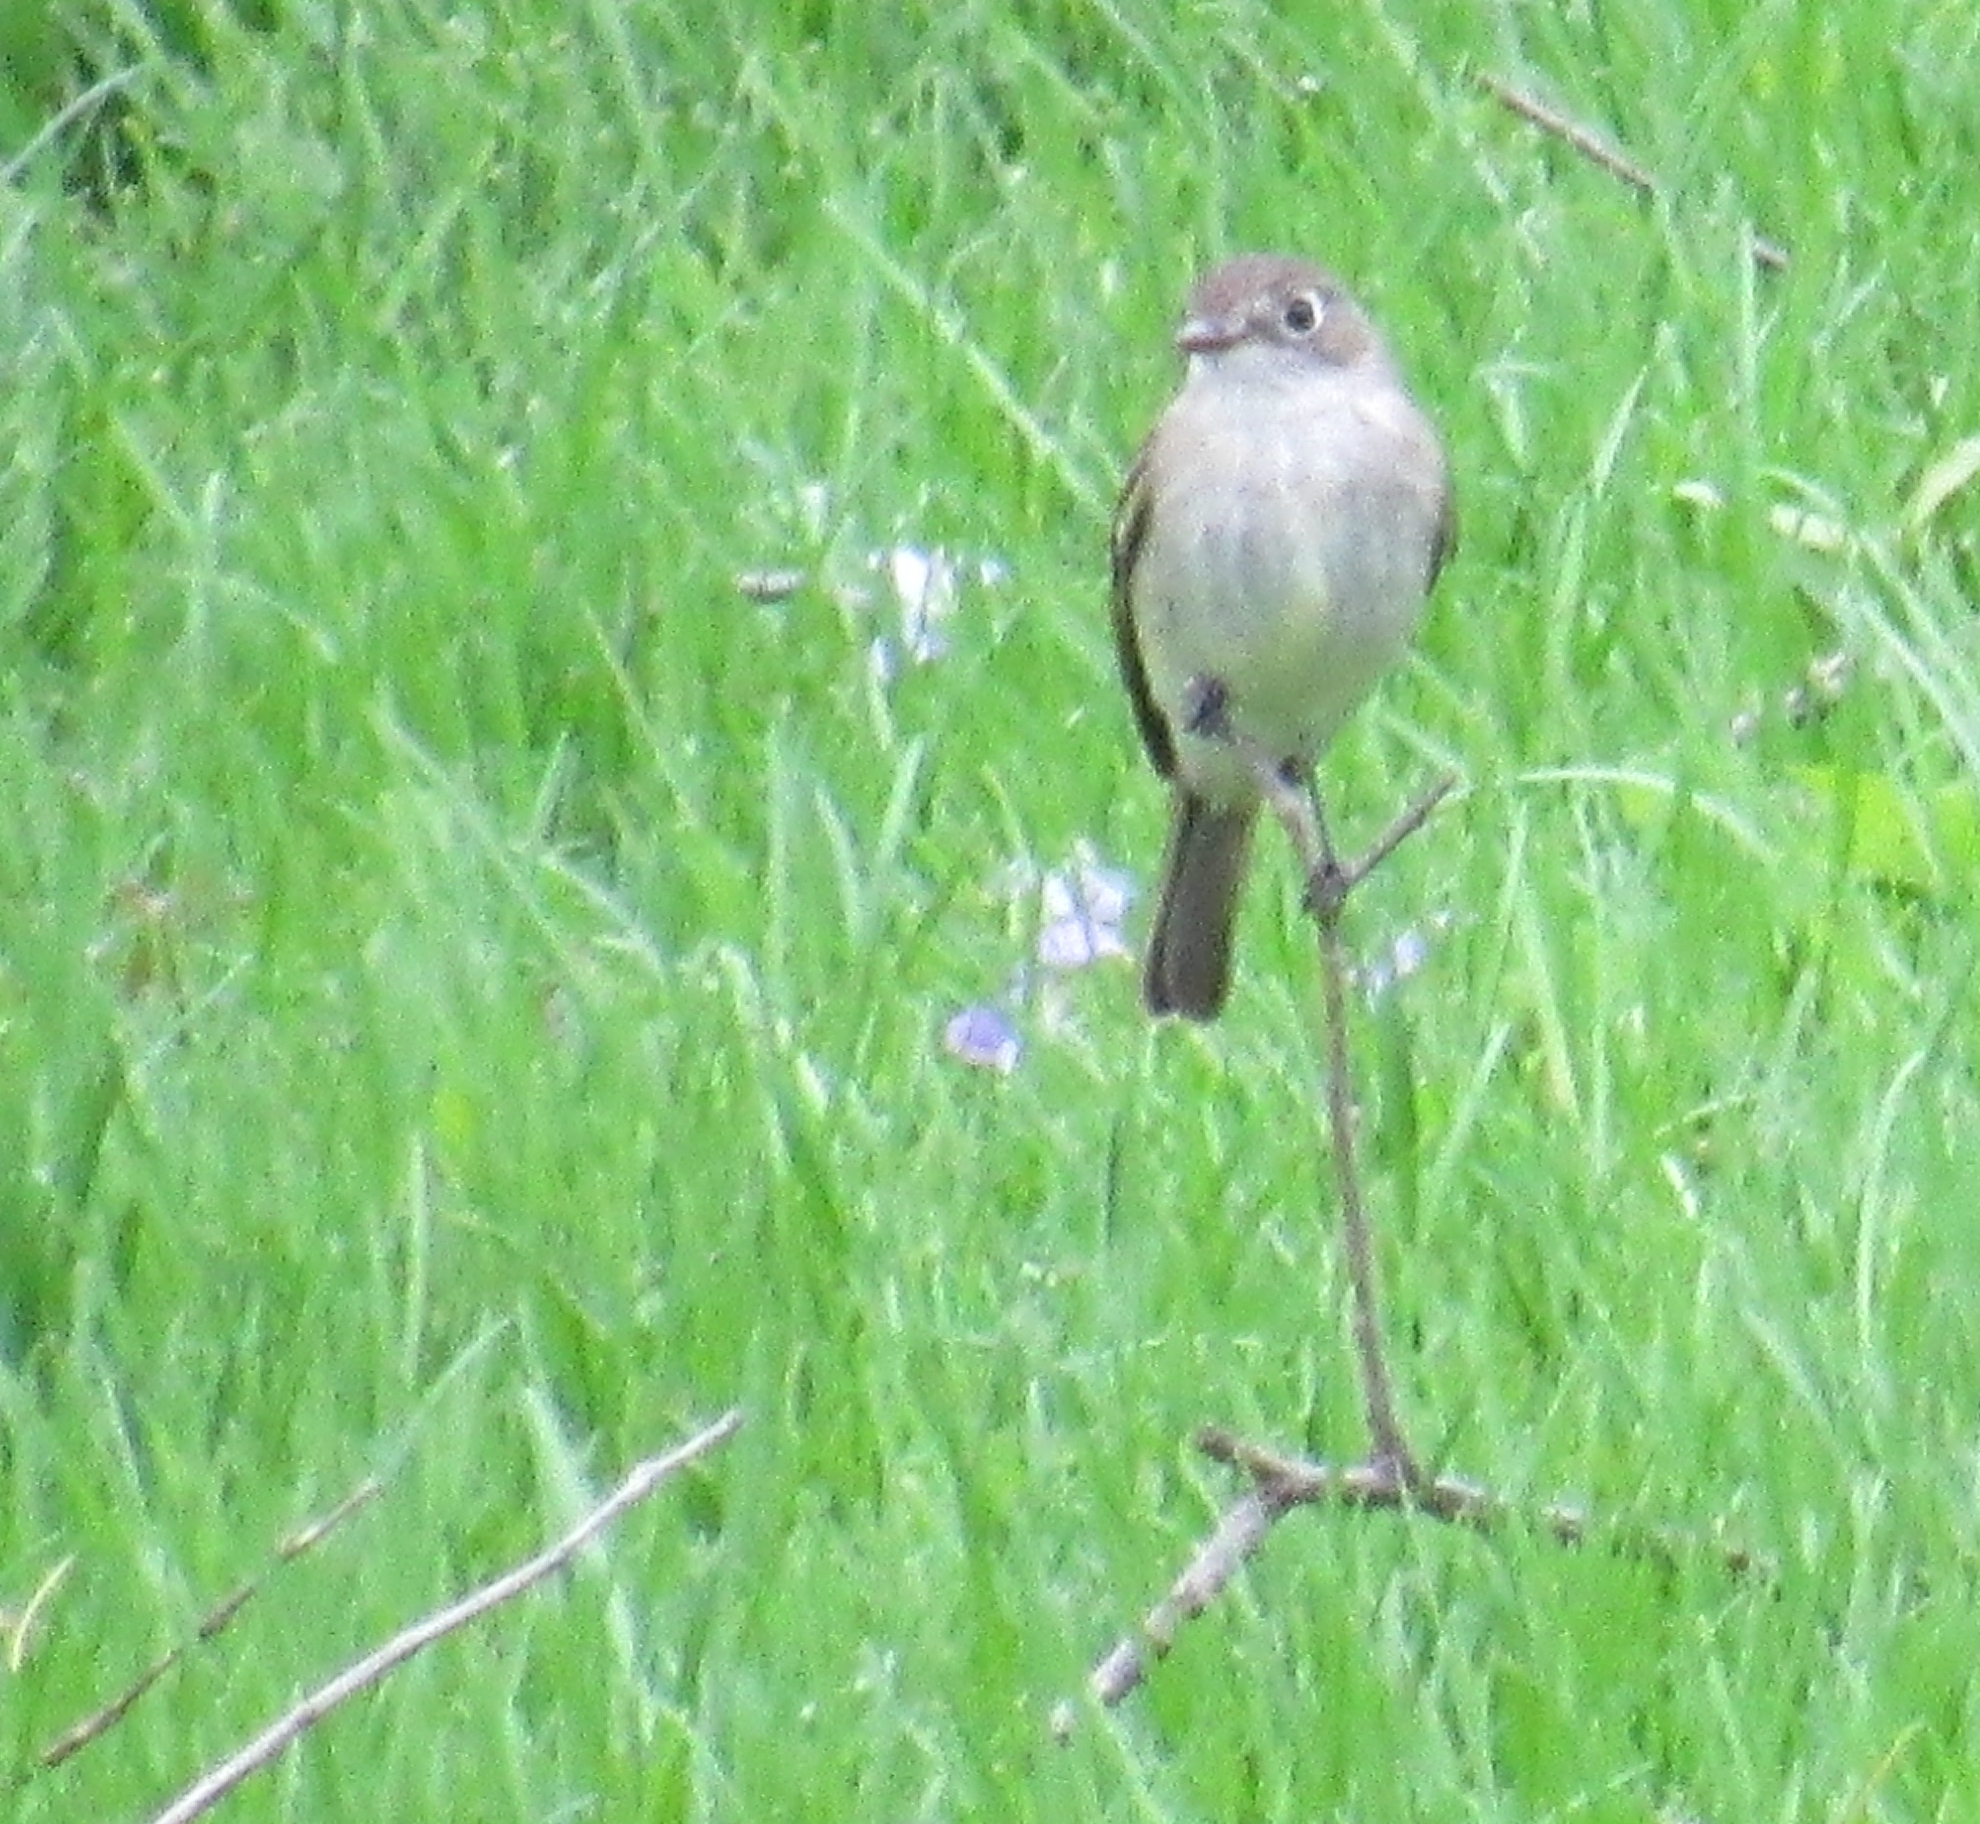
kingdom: Animalia
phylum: Chordata
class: Aves
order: Passeriformes
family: Tyrannidae
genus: Empidonax
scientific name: Empidonax minimus
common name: Least flycatcher
